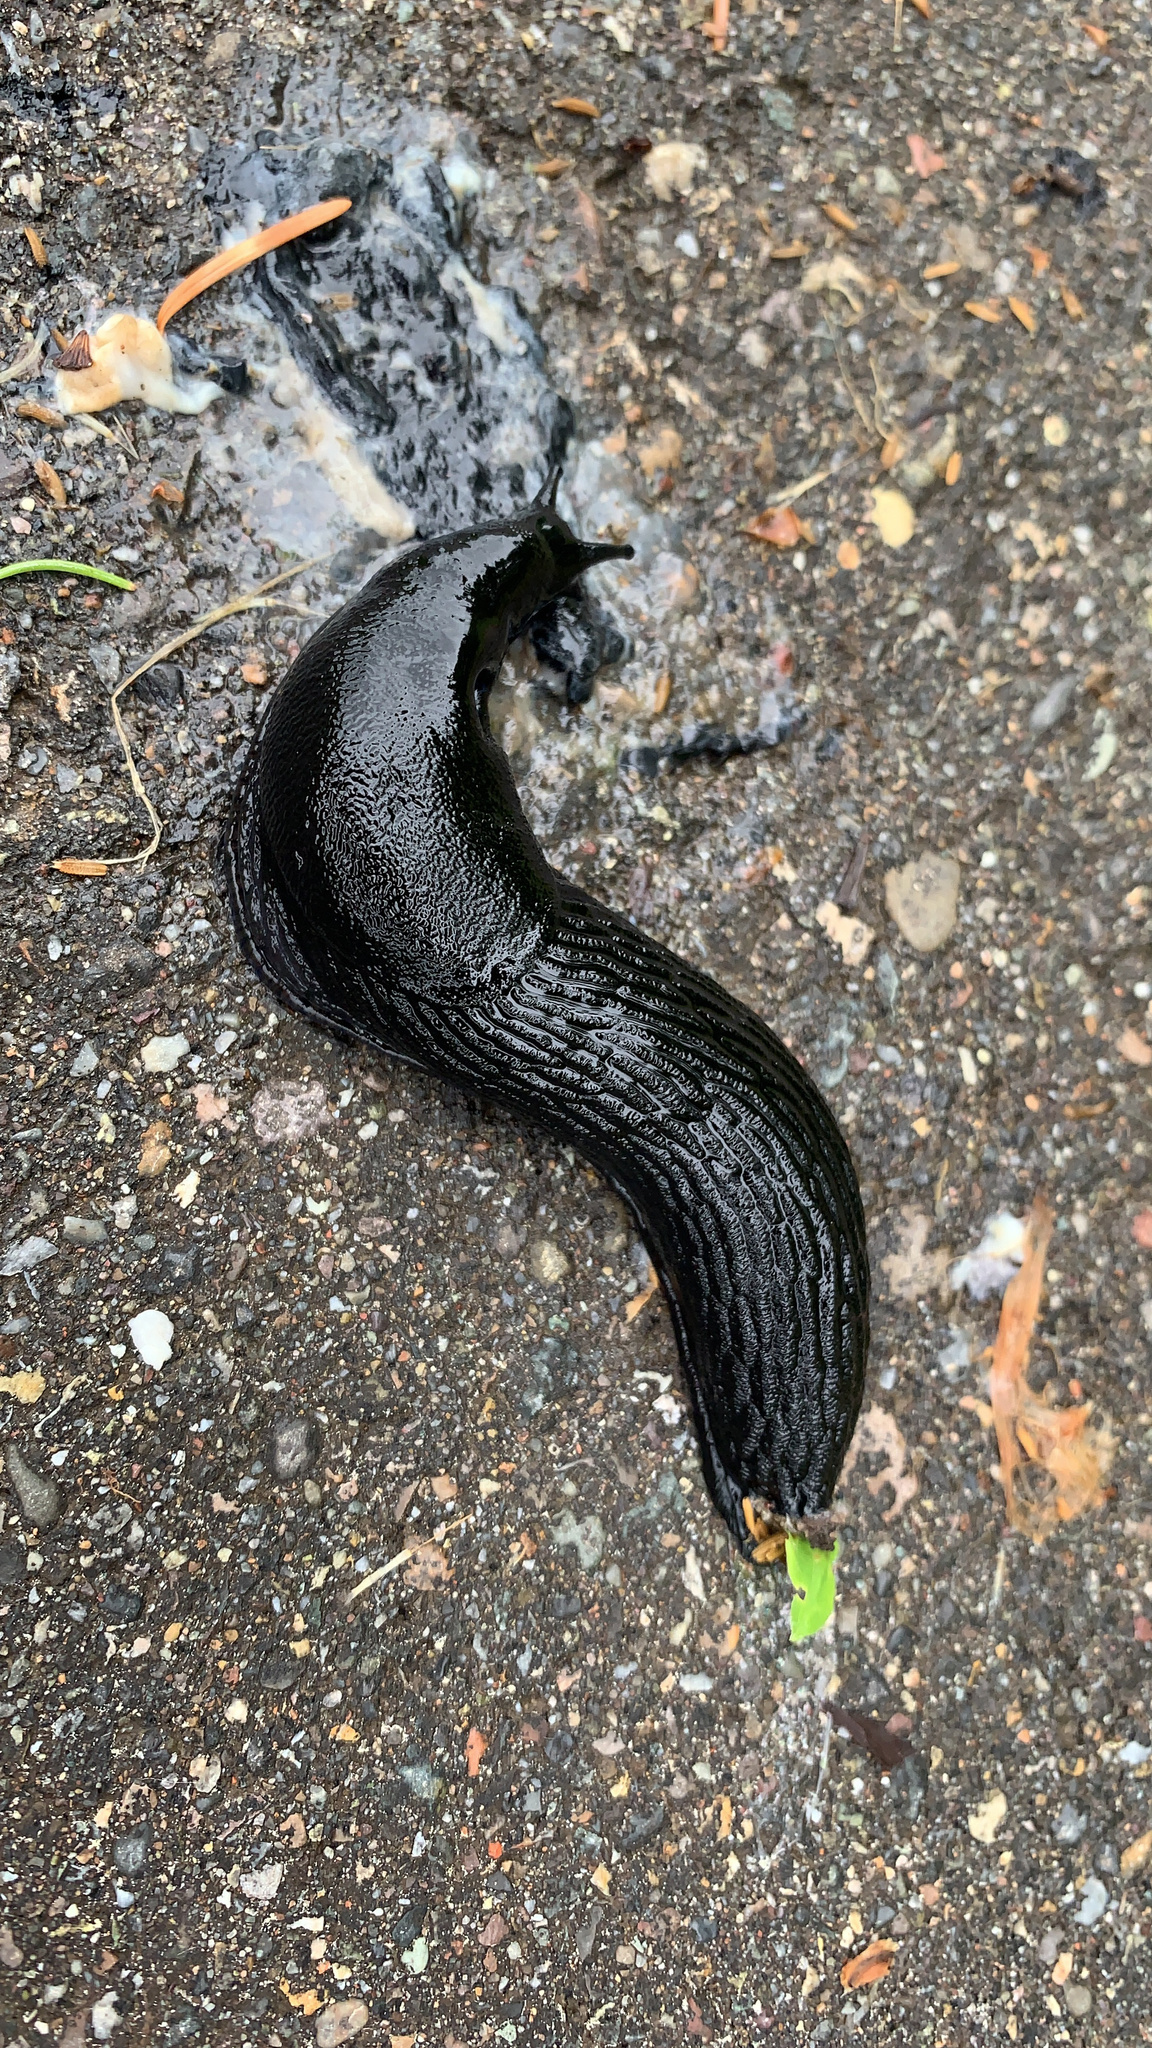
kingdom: Animalia
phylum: Mollusca
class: Gastropoda
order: Stylommatophora
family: Arionidae
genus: Arion
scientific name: Arion
